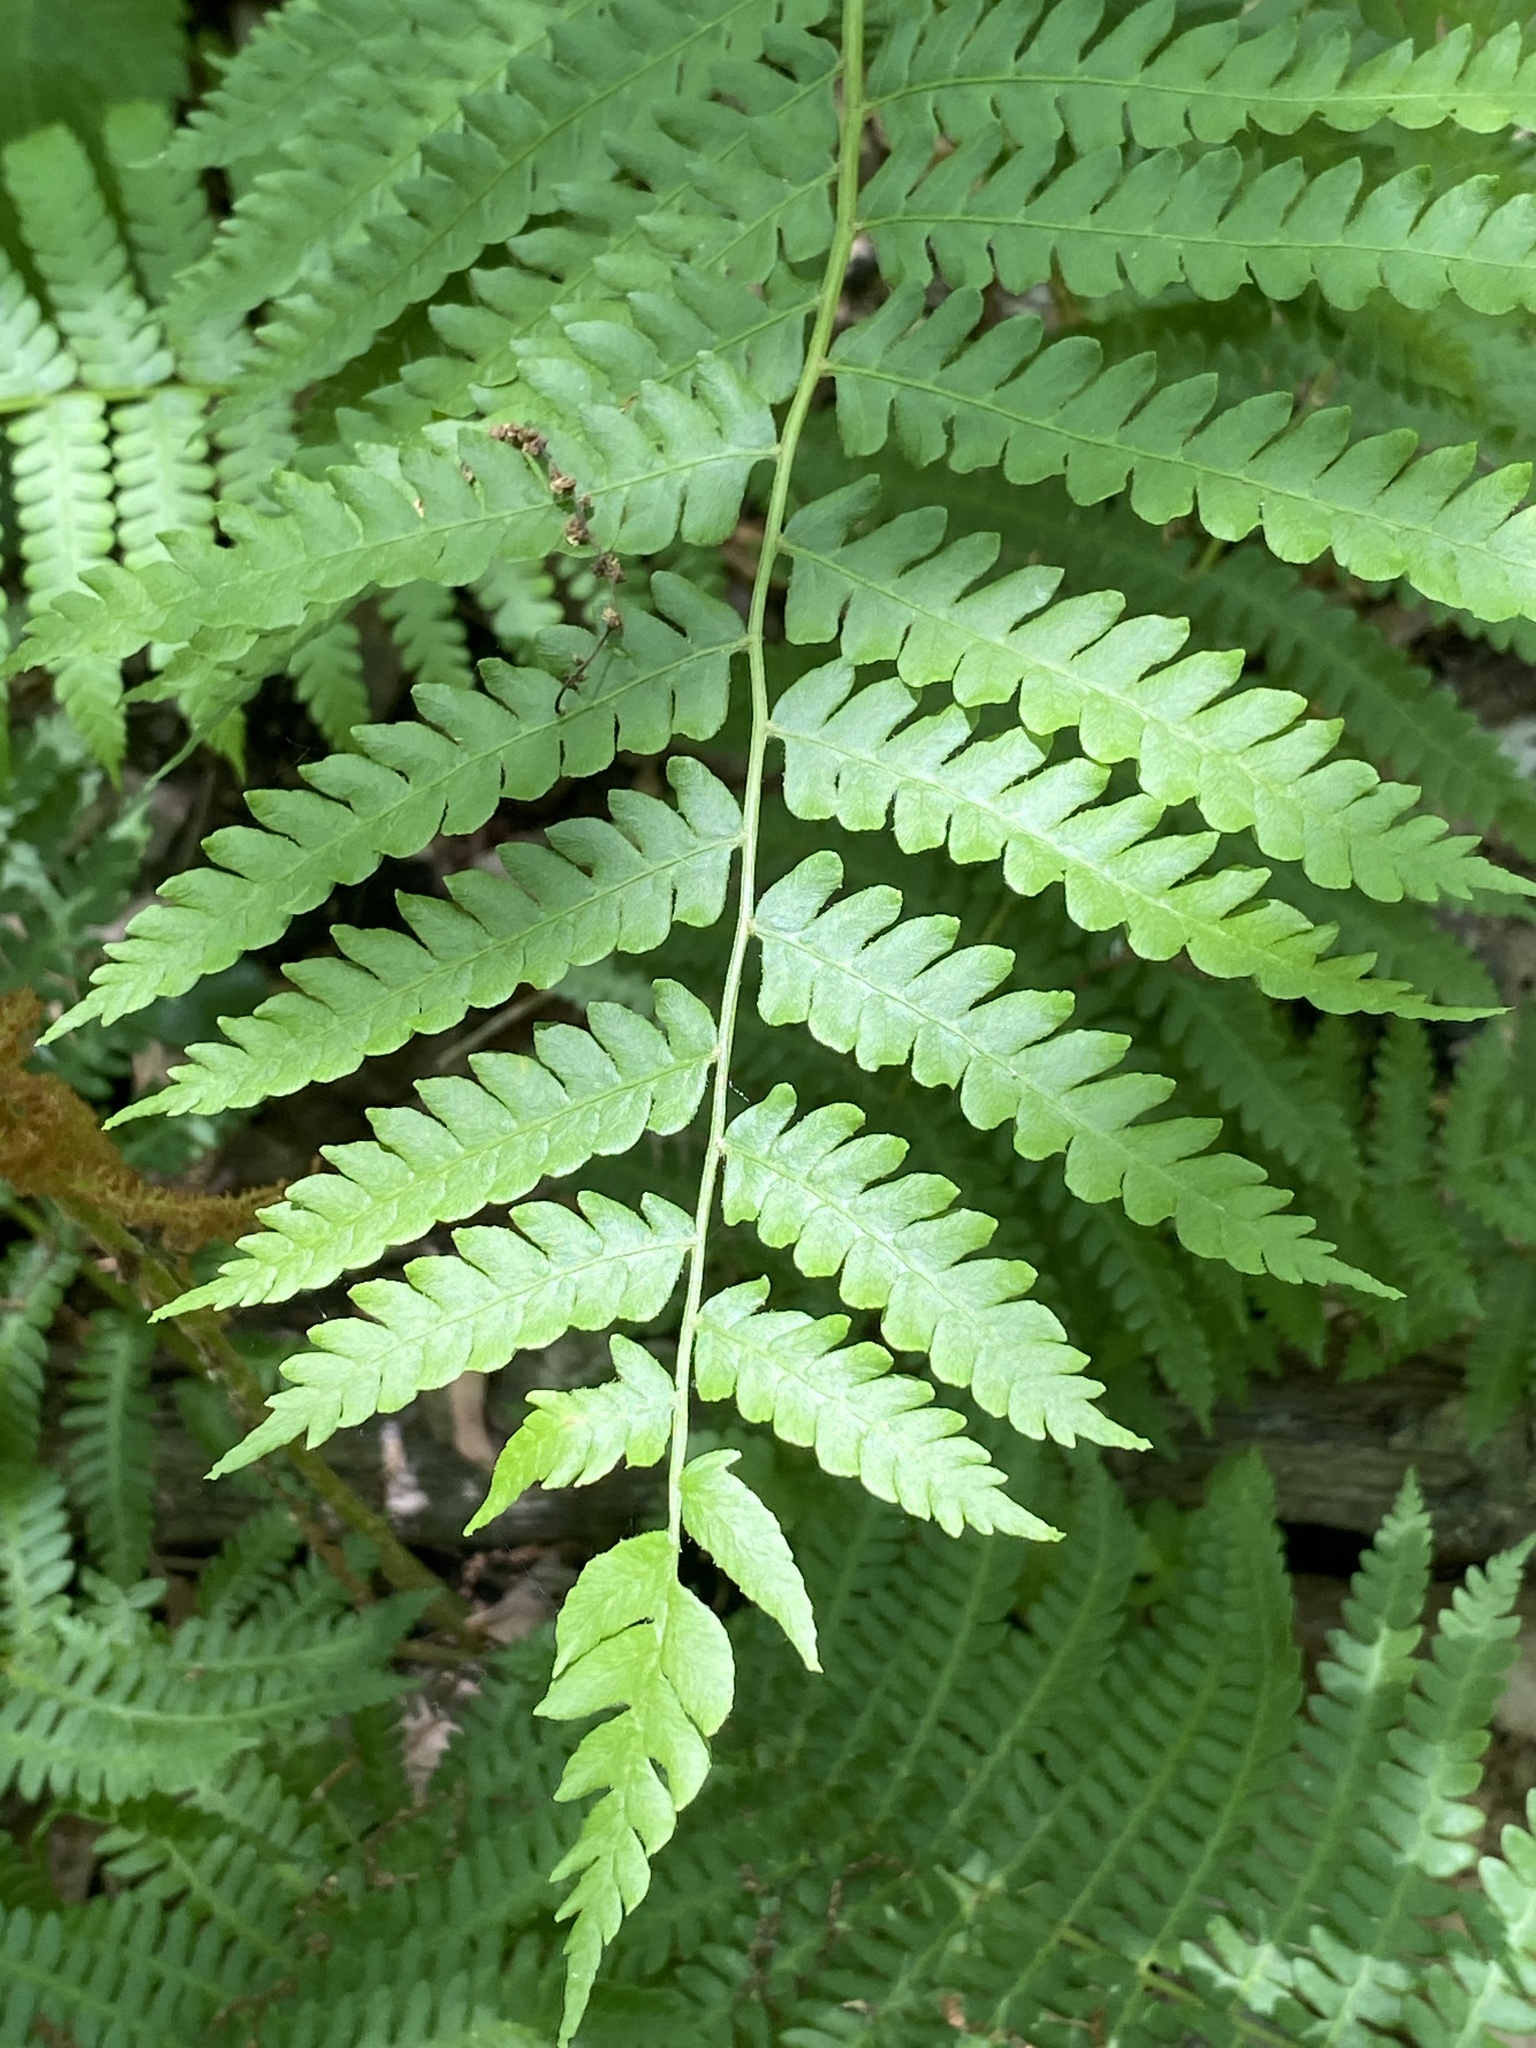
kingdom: Plantae
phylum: Tracheophyta
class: Polypodiopsida
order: Osmundales
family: Osmundaceae
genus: Osmundastrum
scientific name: Osmundastrum cinnamomeum
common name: Cinnamon fern
